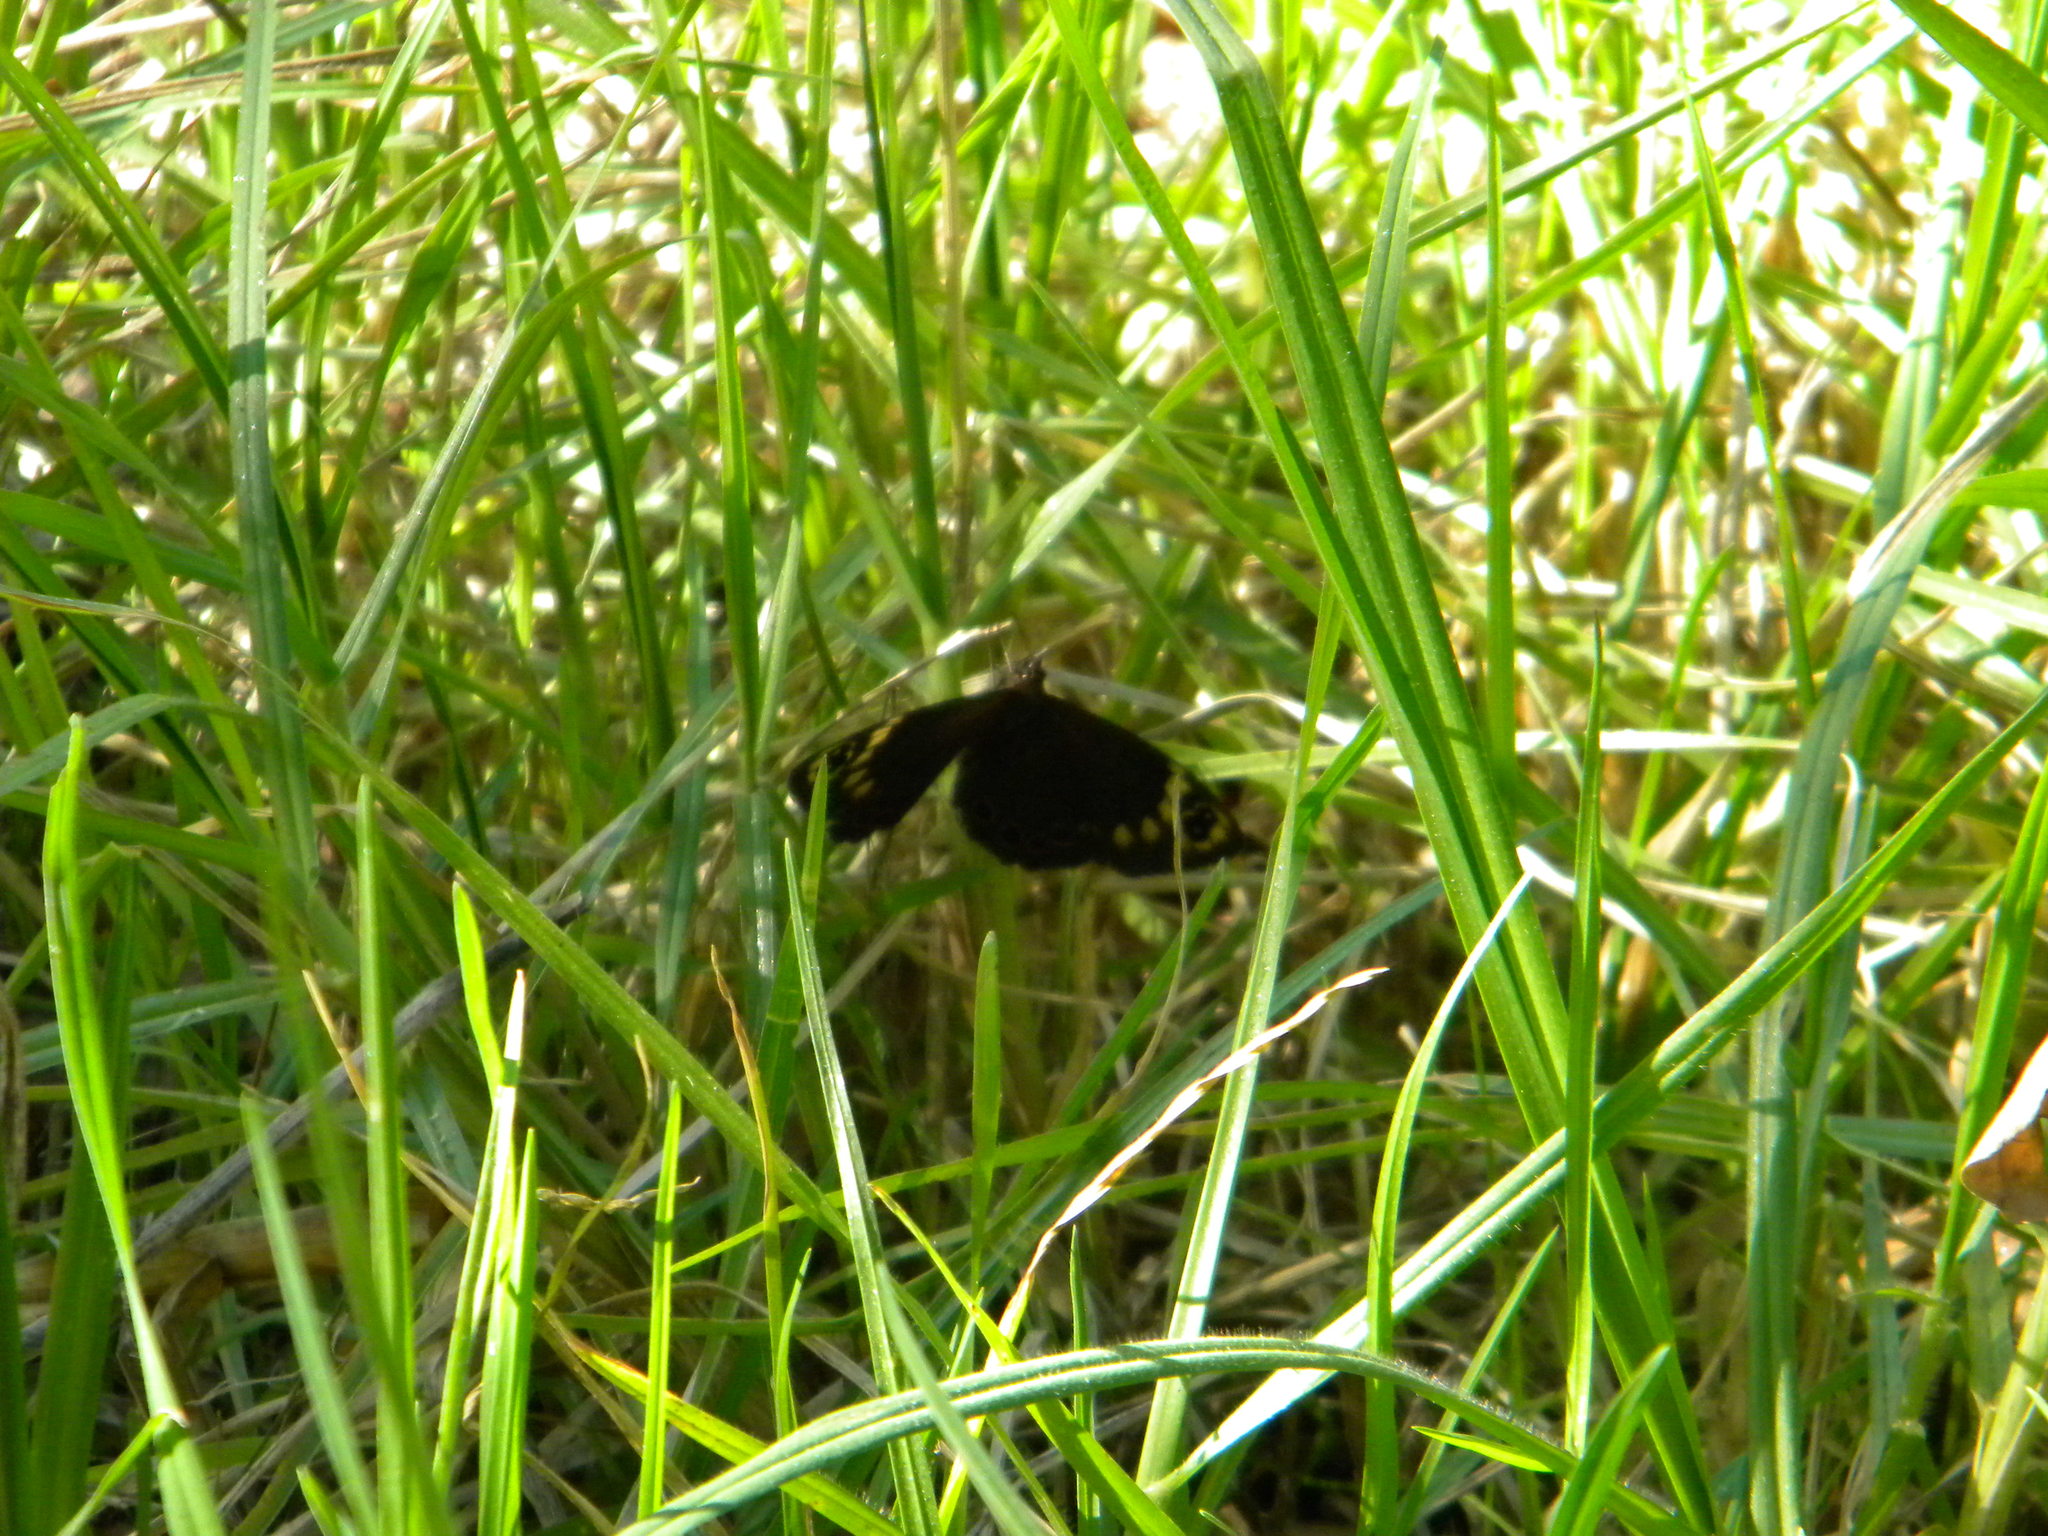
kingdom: Animalia
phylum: Arthropoda
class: Insecta
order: Lepidoptera
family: Nymphalidae
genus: Dira
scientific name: Dira clytus
